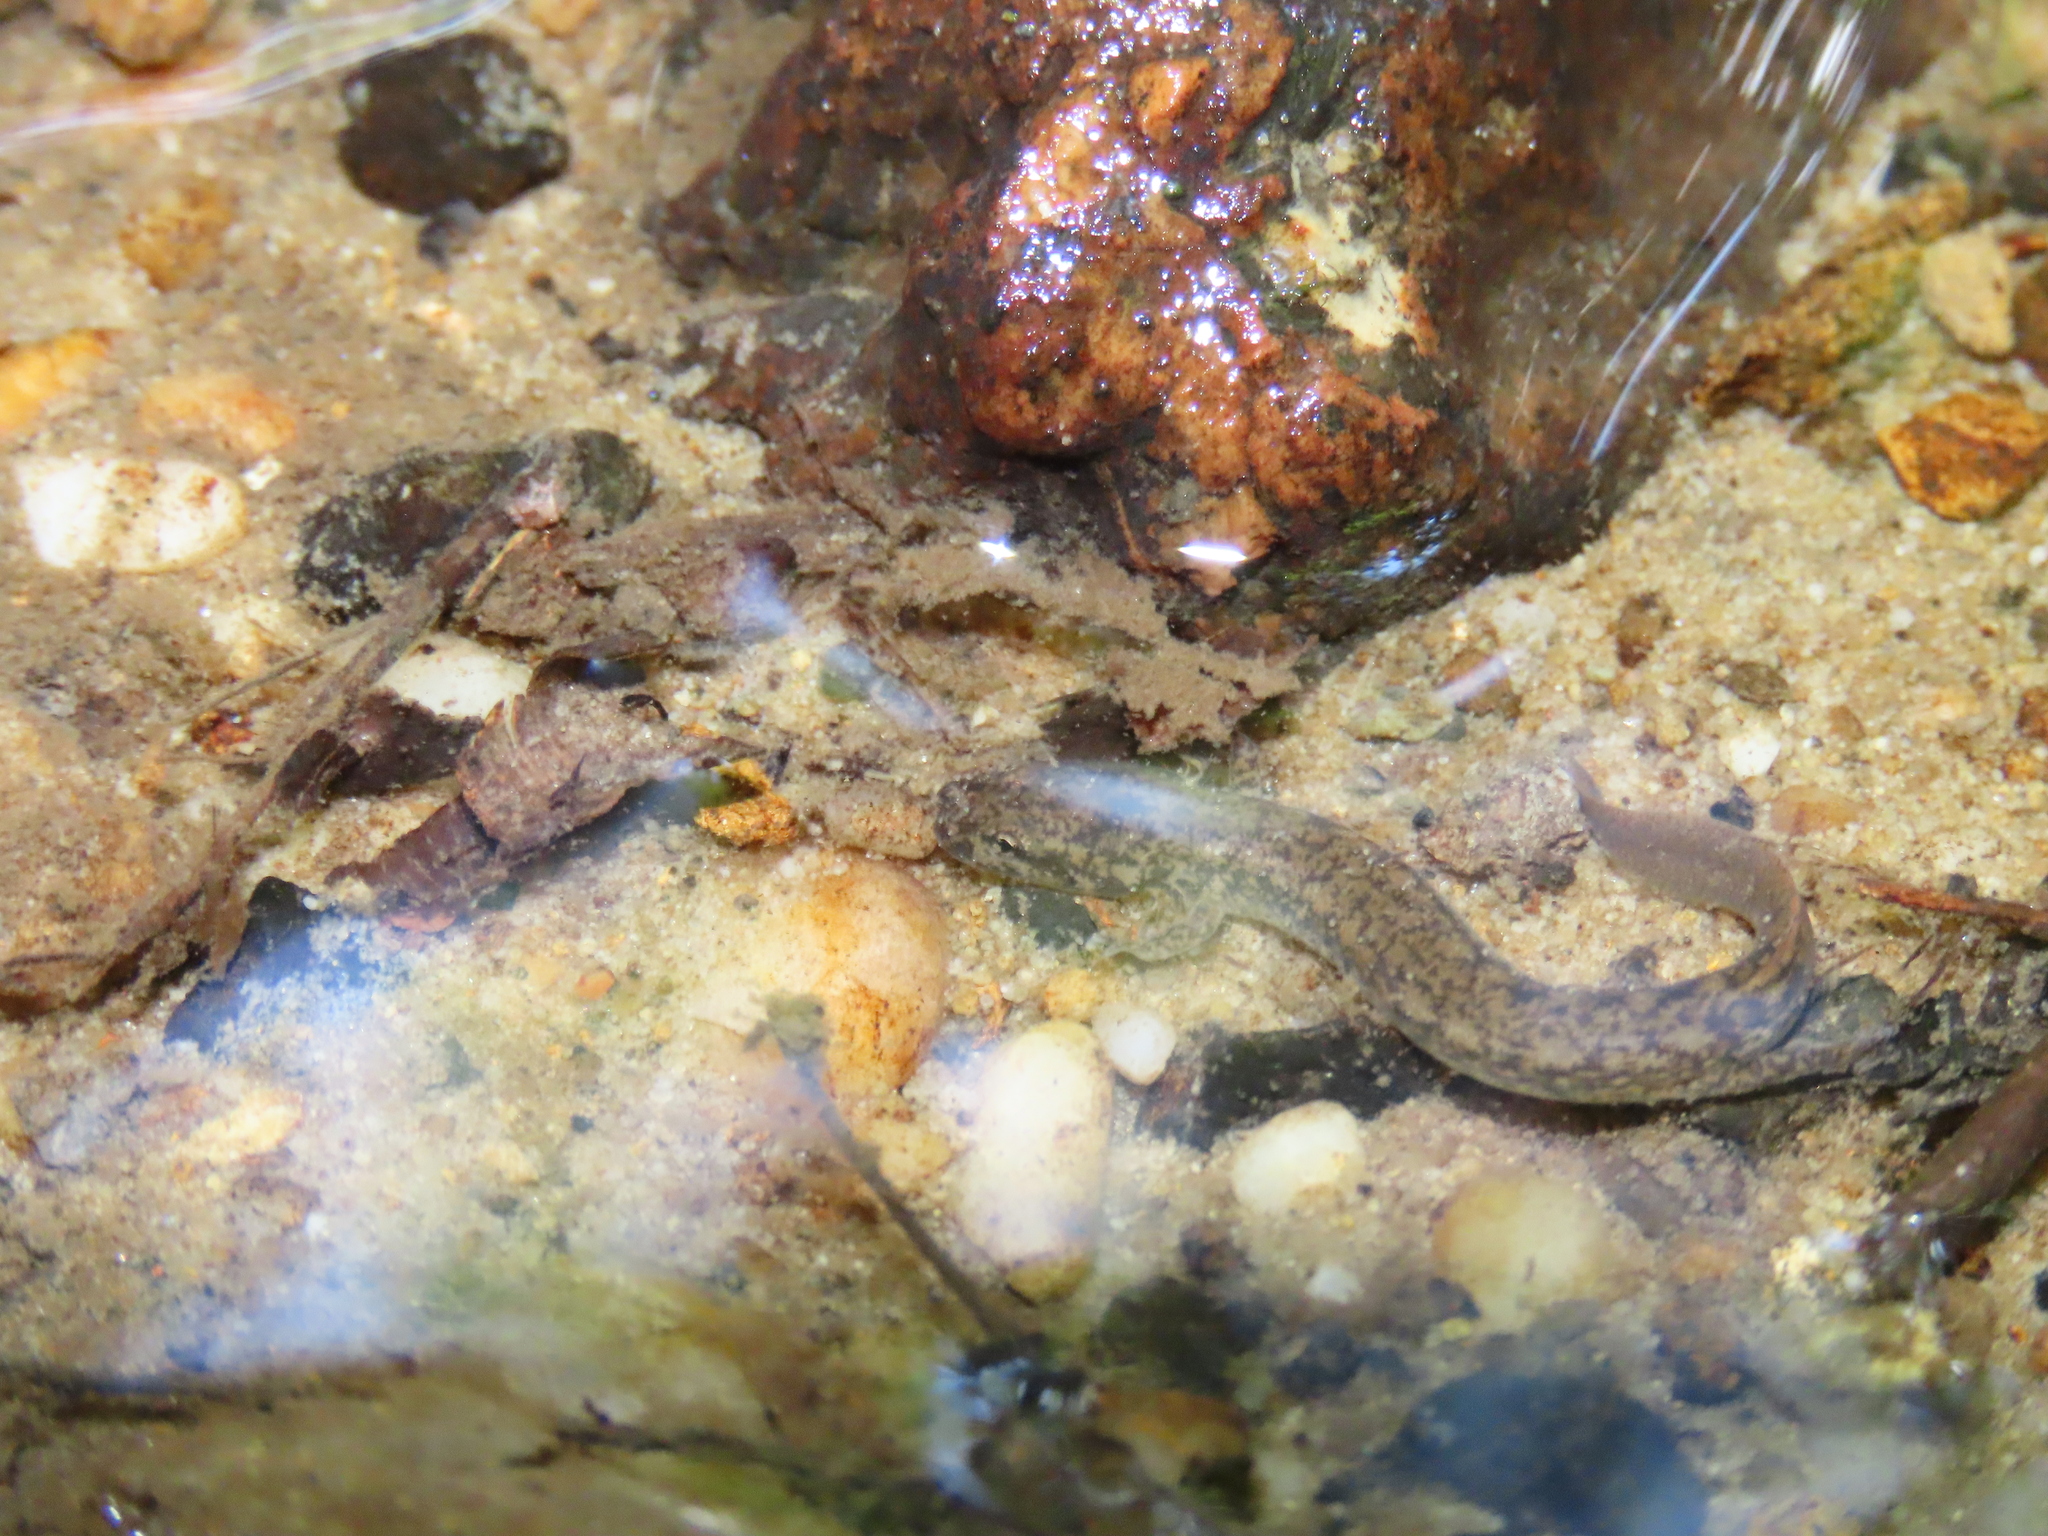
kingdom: Animalia
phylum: Chordata
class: Amphibia
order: Caudata
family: Plethodontidae
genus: Eurycea
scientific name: Eurycea bislineata
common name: Northern two-lined salamander
